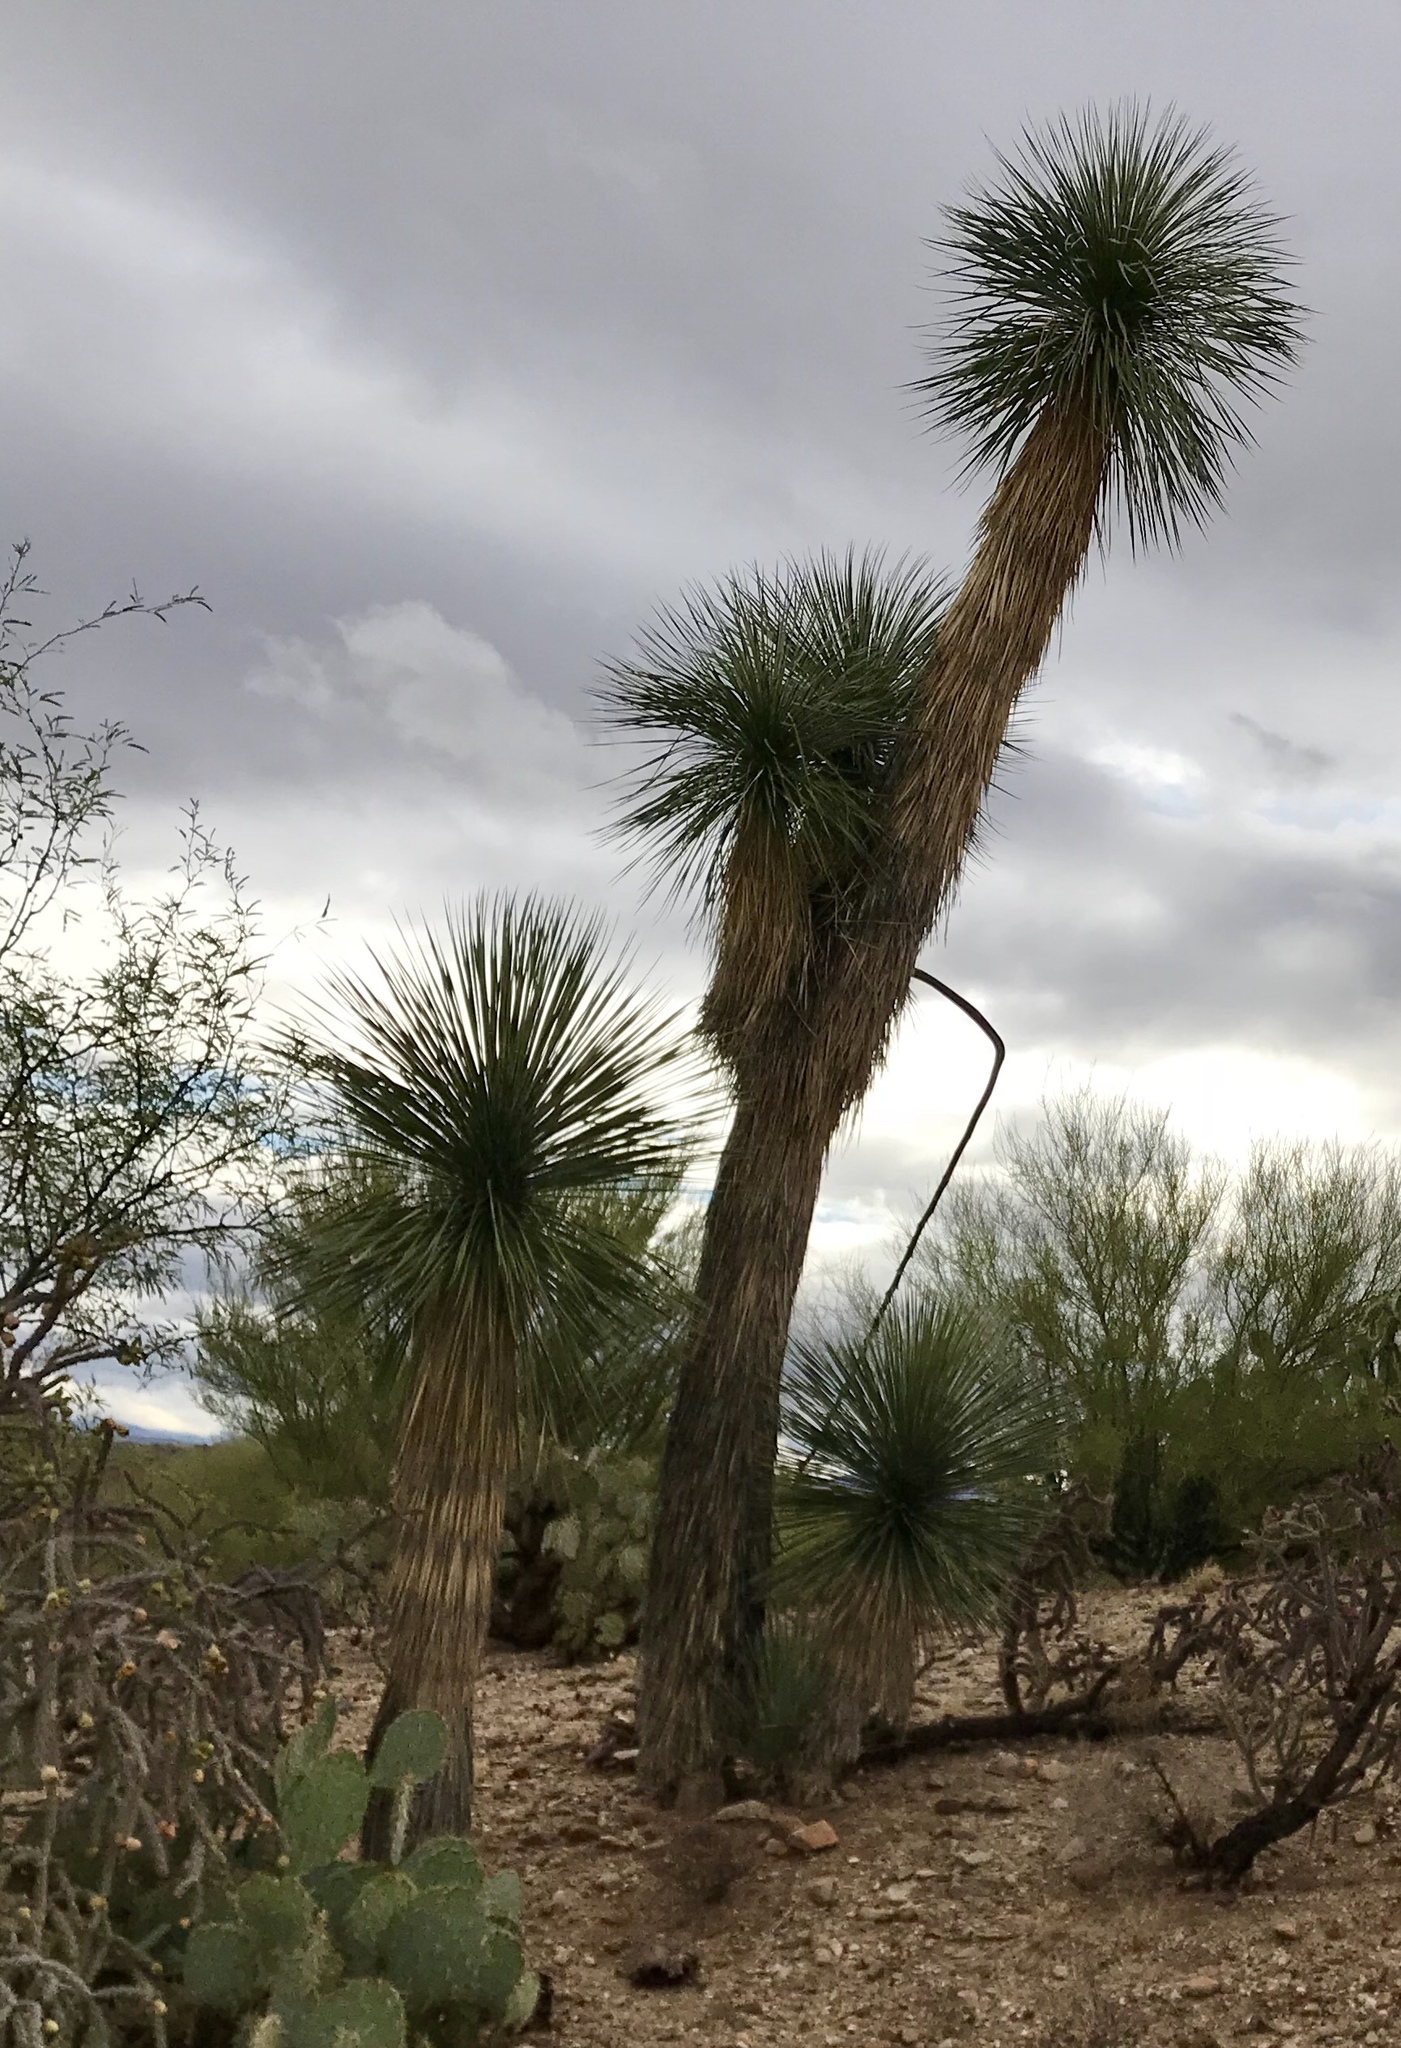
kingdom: Plantae
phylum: Tracheophyta
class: Liliopsida
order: Asparagales
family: Asparagaceae
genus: Yucca
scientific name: Yucca elata
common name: Palmella
